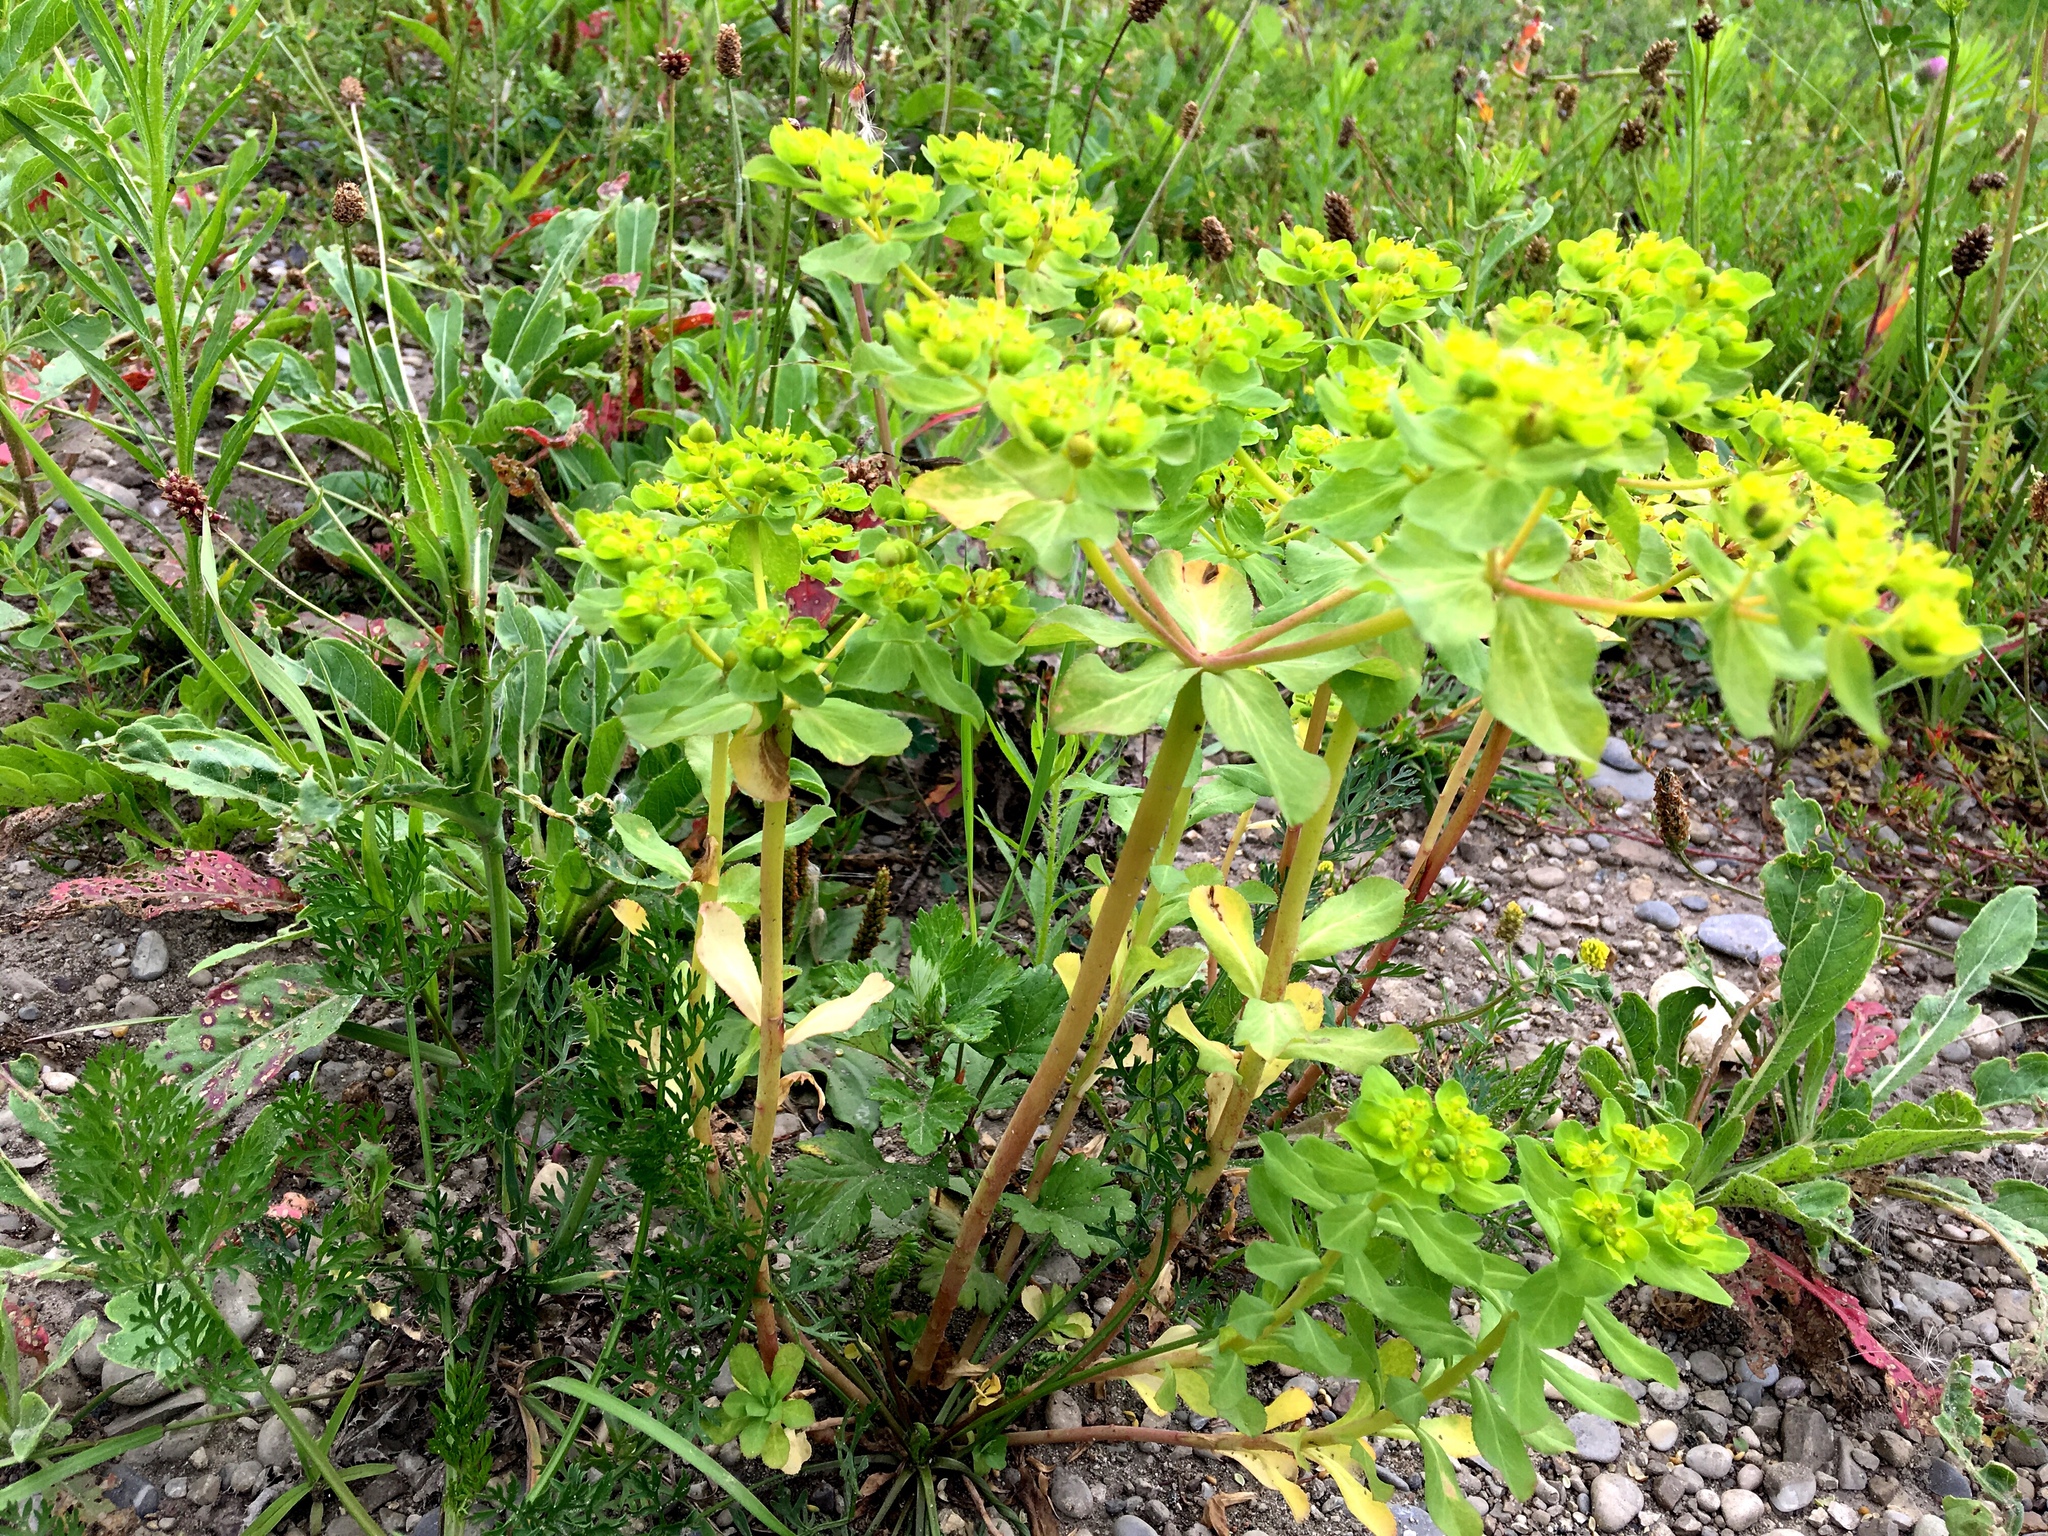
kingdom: Plantae
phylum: Tracheophyta
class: Magnoliopsida
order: Malpighiales
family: Euphorbiaceae
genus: Euphorbia
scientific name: Euphorbia helioscopia
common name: Sun spurge
